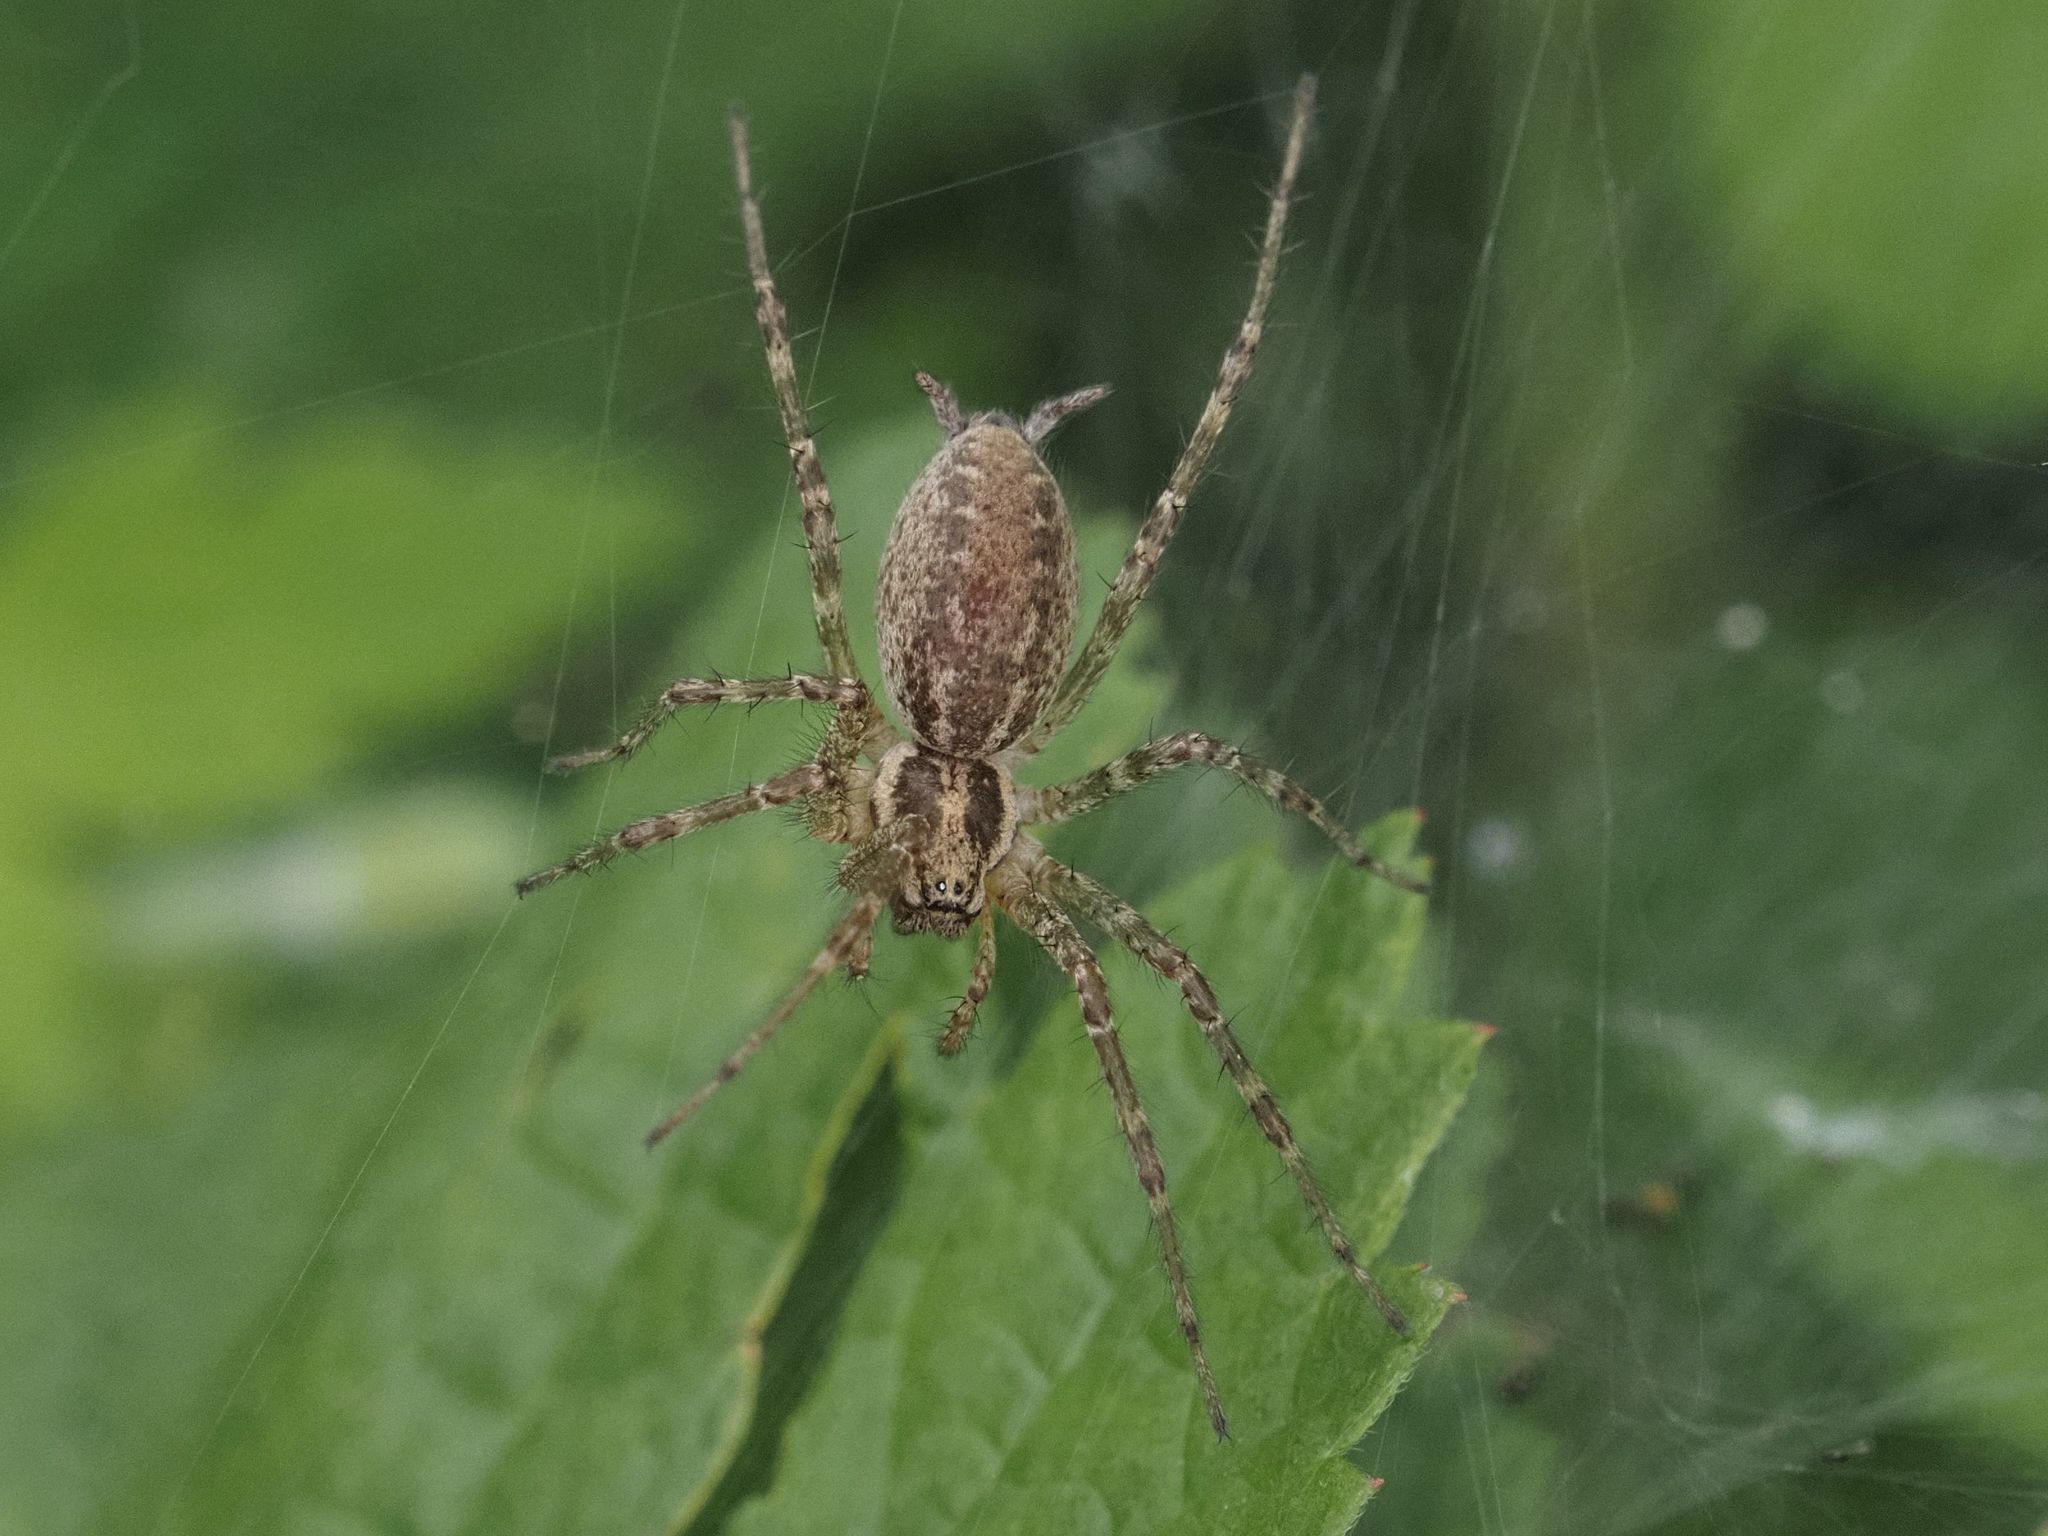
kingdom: Animalia
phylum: Arthropoda
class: Arachnida
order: Araneae
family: Agelenidae
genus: Allagelena
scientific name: Allagelena gracilens
